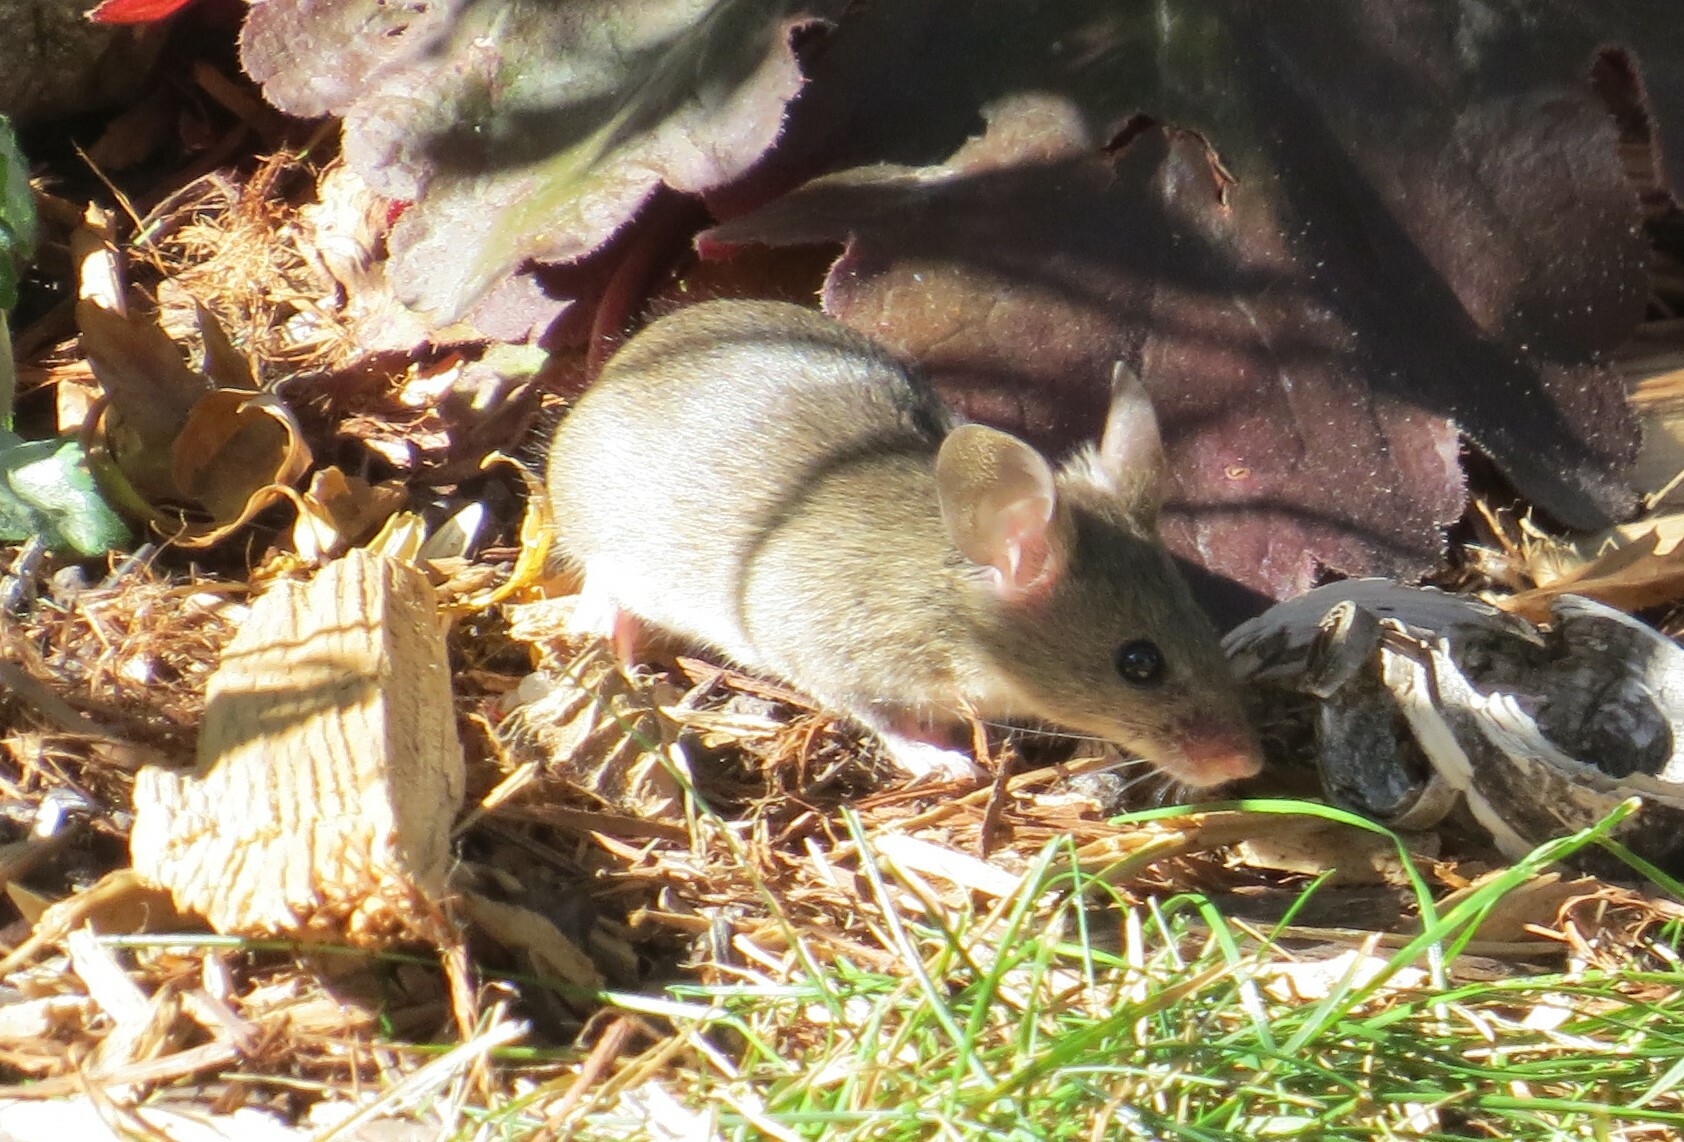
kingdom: Animalia
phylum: Chordata
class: Mammalia
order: Rodentia
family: Muridae
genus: Mus
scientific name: Mus musculus
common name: House mouse
